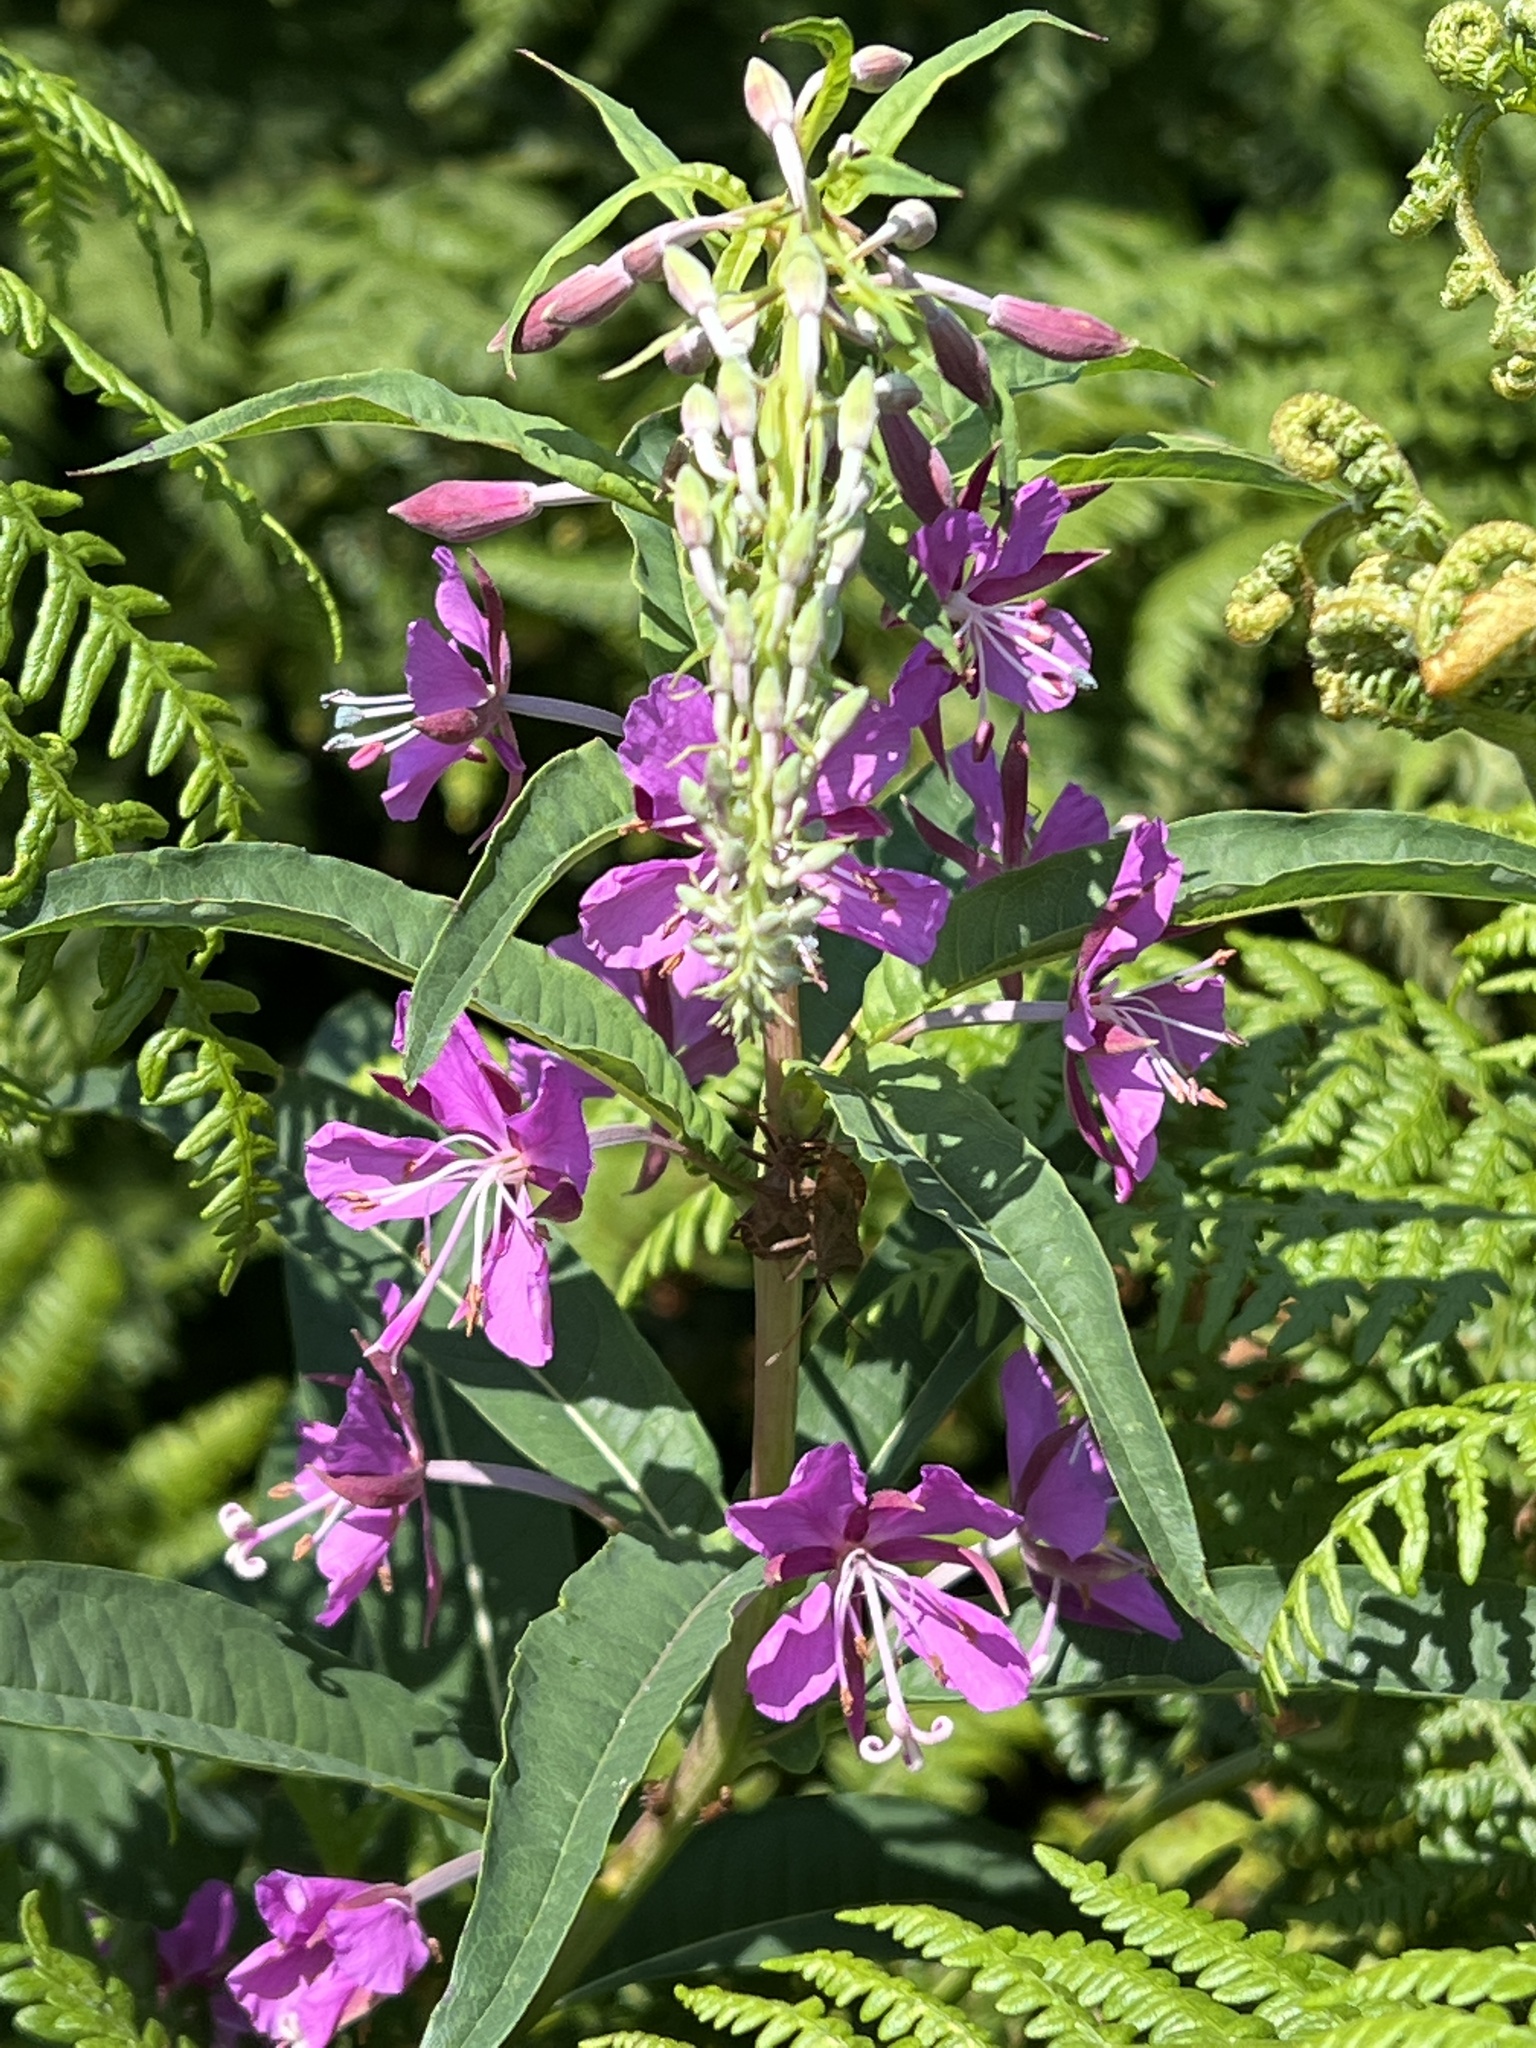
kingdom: Plantae
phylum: Tracheophyta
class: Magnoliopsida
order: Myrtales
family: Onagraceae
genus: Chamaenerion
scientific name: Chamaenerion angustifolium
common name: Fireweed
